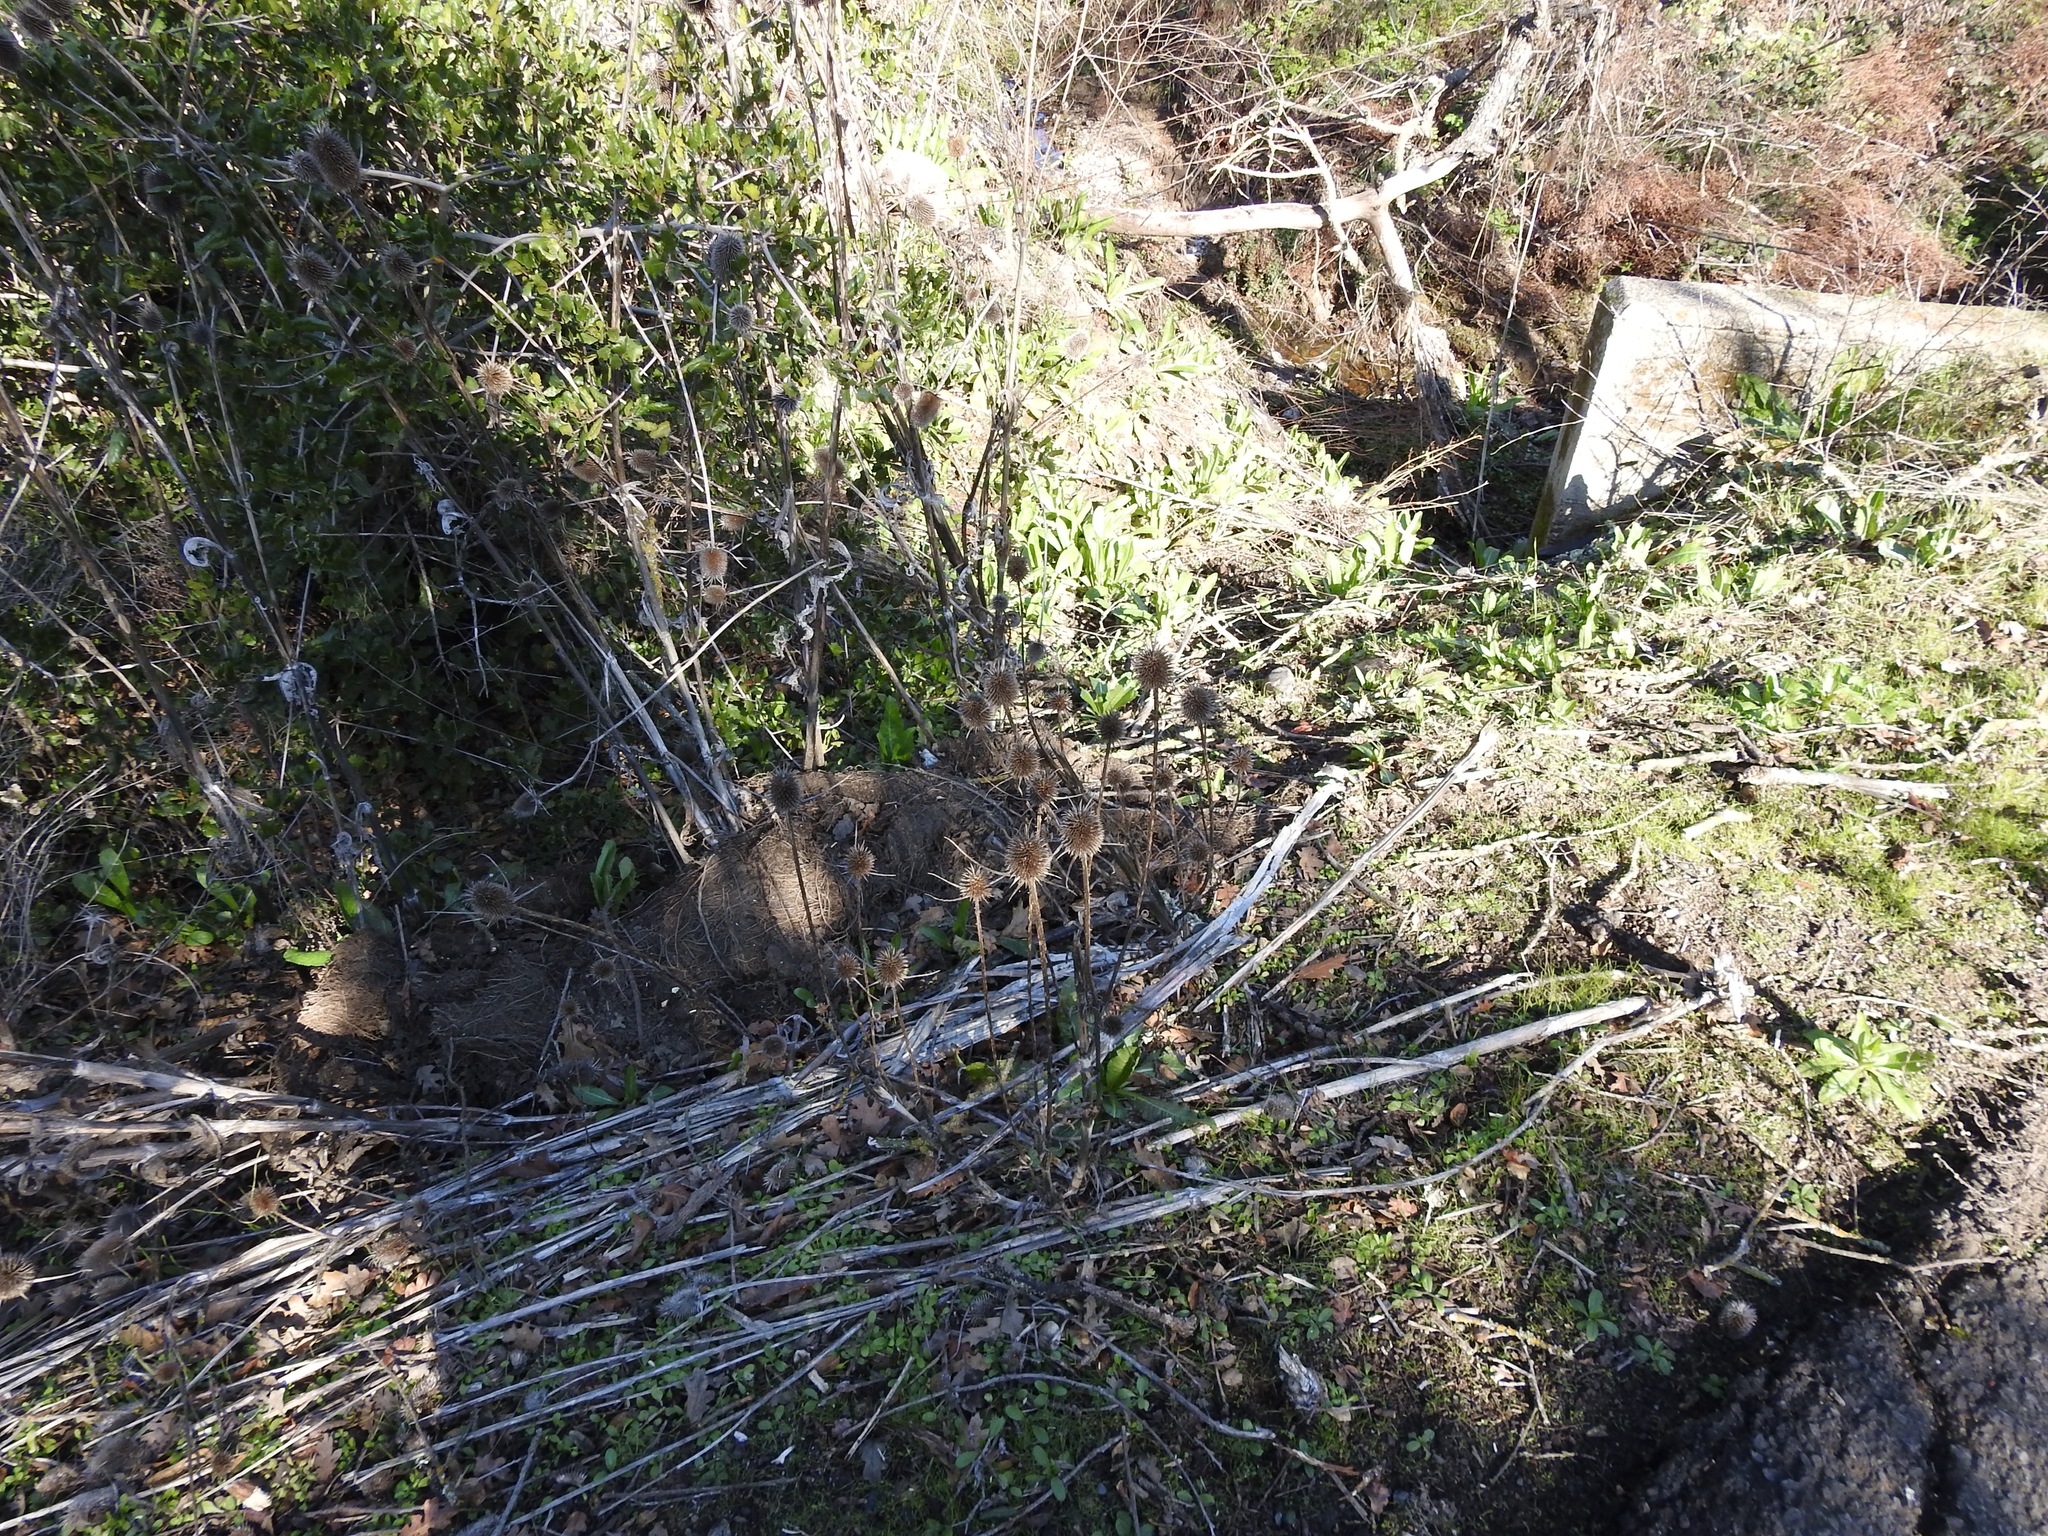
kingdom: Plantae
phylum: Tracheophyta
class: Magnoliopsida
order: Dipsacales
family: Caprifoliaceae
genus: Dipsacus
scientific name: Dipsacus sativus
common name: Fuller's teasel
